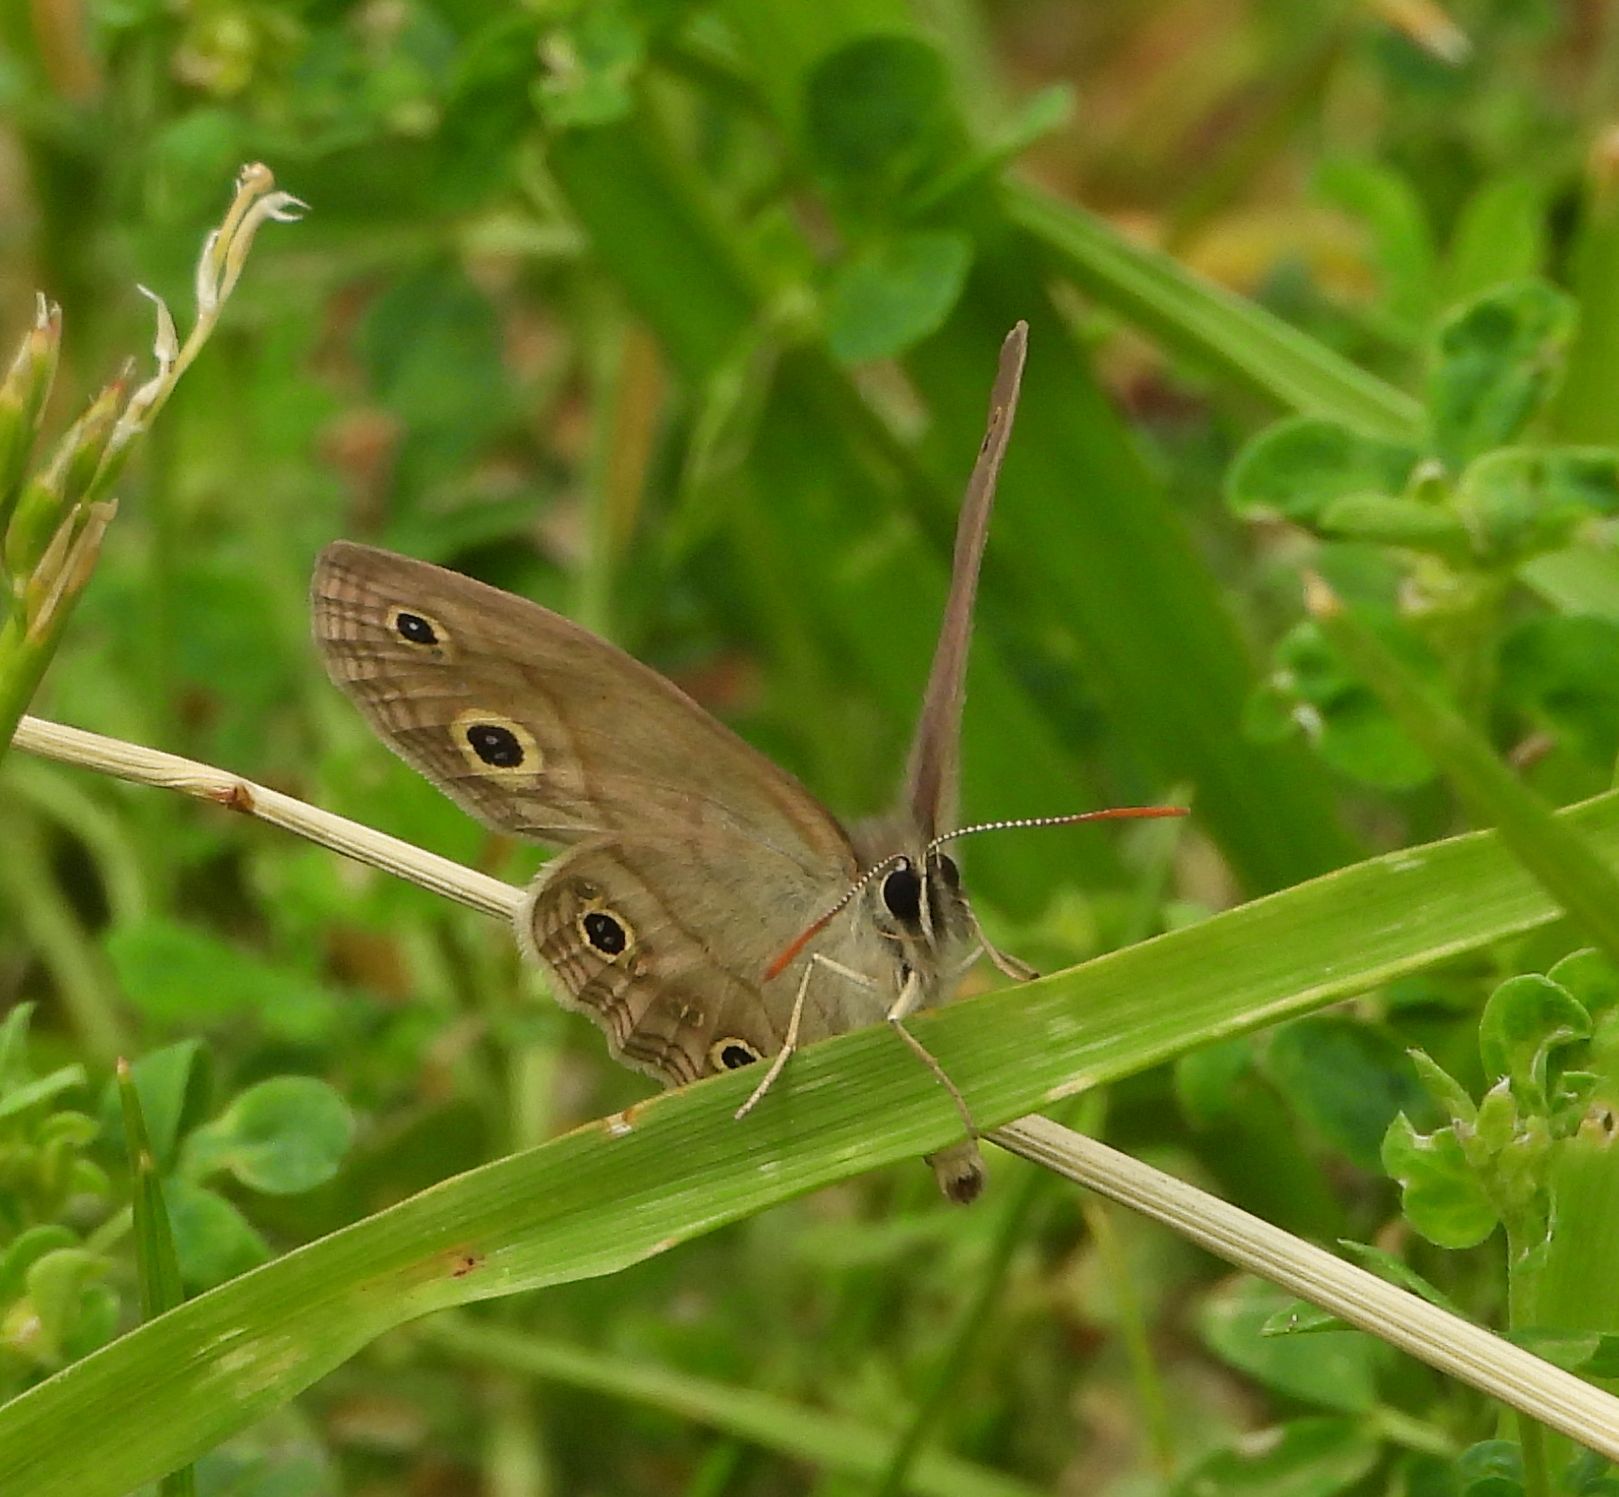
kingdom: Animalia
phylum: Arthropoda
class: Insecta
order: Lepidoptera
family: Nymphalidae
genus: Euptychia
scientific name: Euptychia cymela
